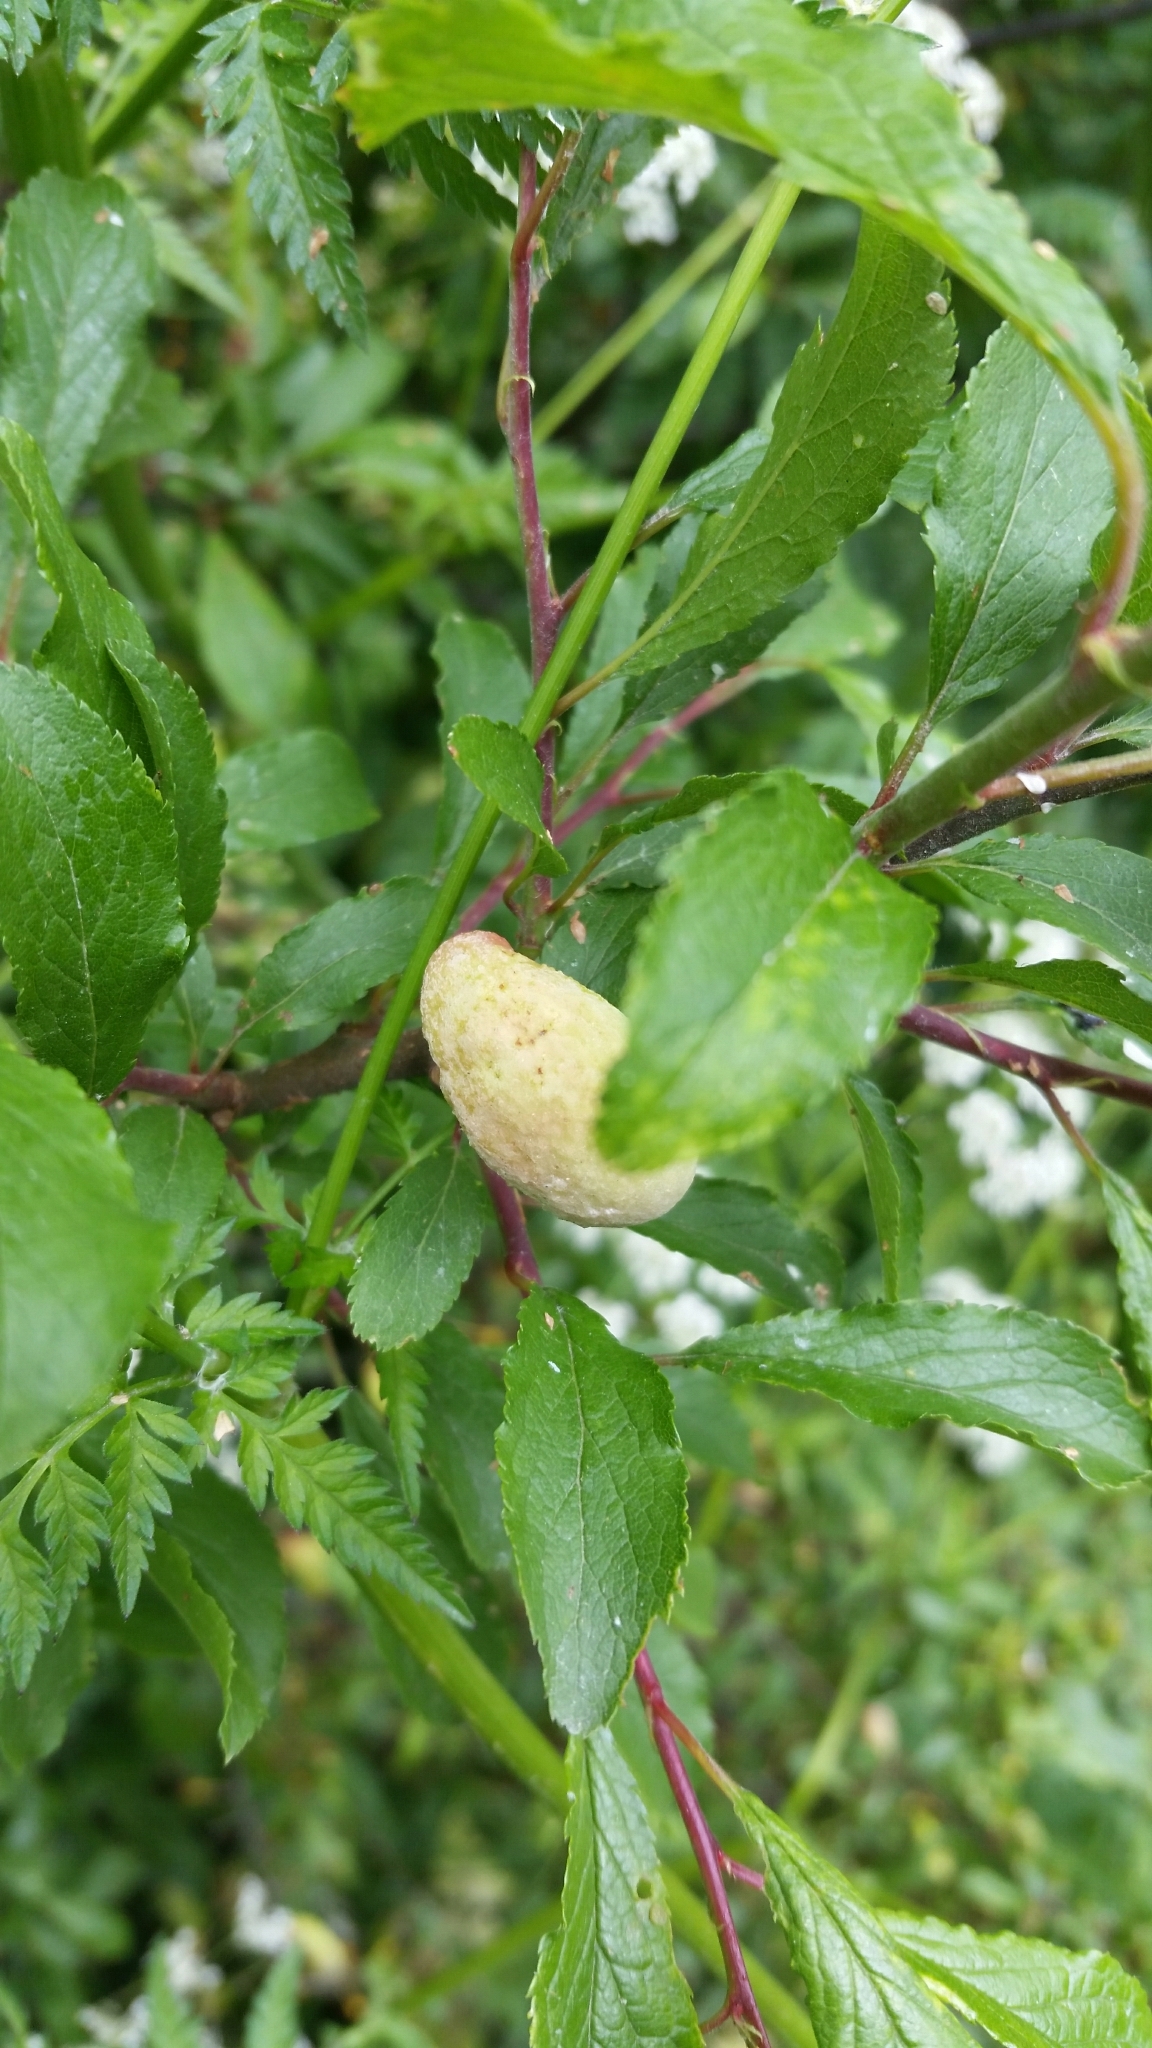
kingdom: Fungi
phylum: Ascomycota
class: Taphrinomycetes
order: Taphrinales
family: Taphrinaceae
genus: Taphrina
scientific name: Taphrina pruni
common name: Pocket plum
